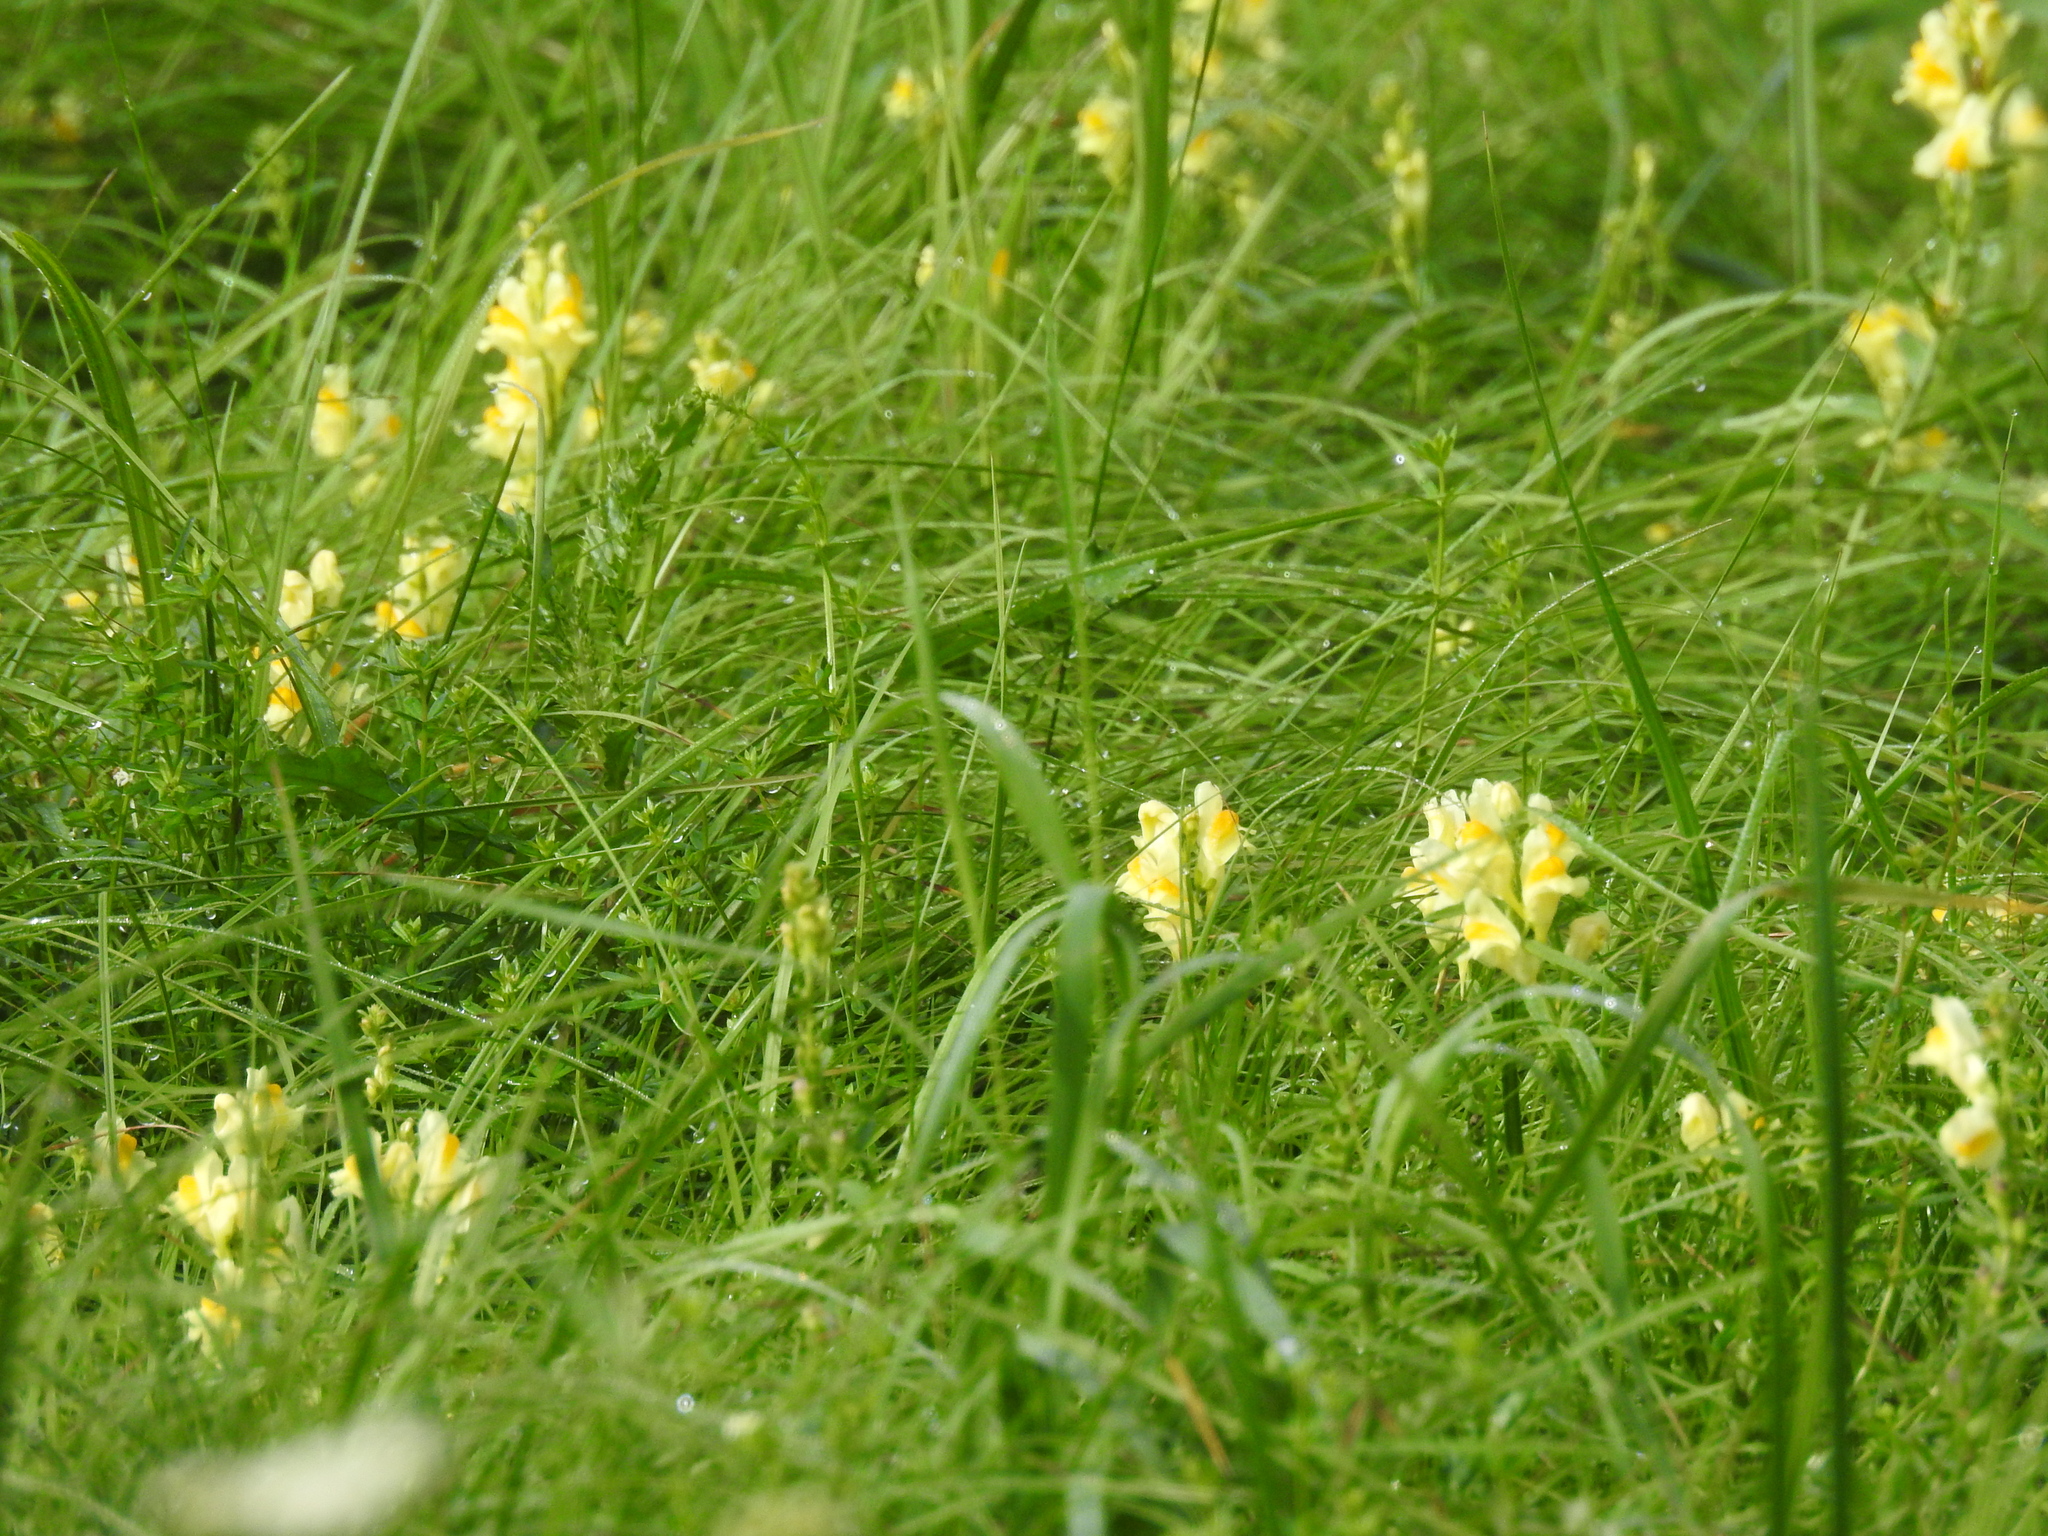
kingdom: Plantae
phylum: Tracheophyta
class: Magnoliopsida
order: Lamiales
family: Plantaginaceae
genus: Linaria
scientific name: Linaria vulgaris
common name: Butter and eggs
